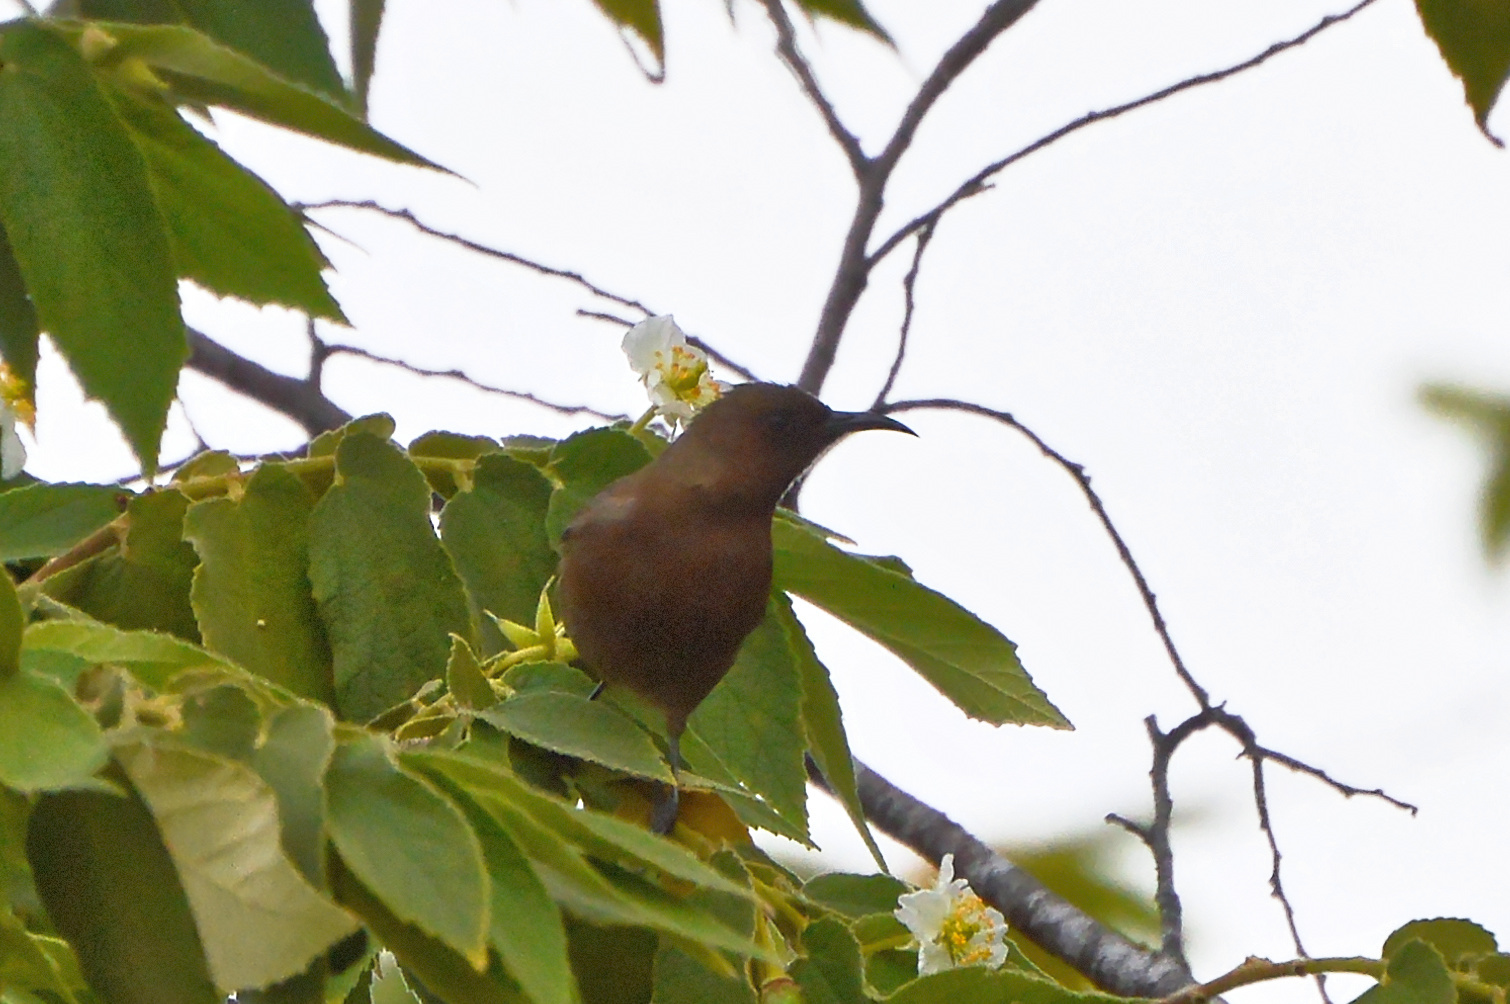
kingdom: Animalia
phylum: Chordata
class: Aves
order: Passeriformes
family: Meliphagidae
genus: Myzomela
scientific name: Myzomela obscura
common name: Dusky myzomela
